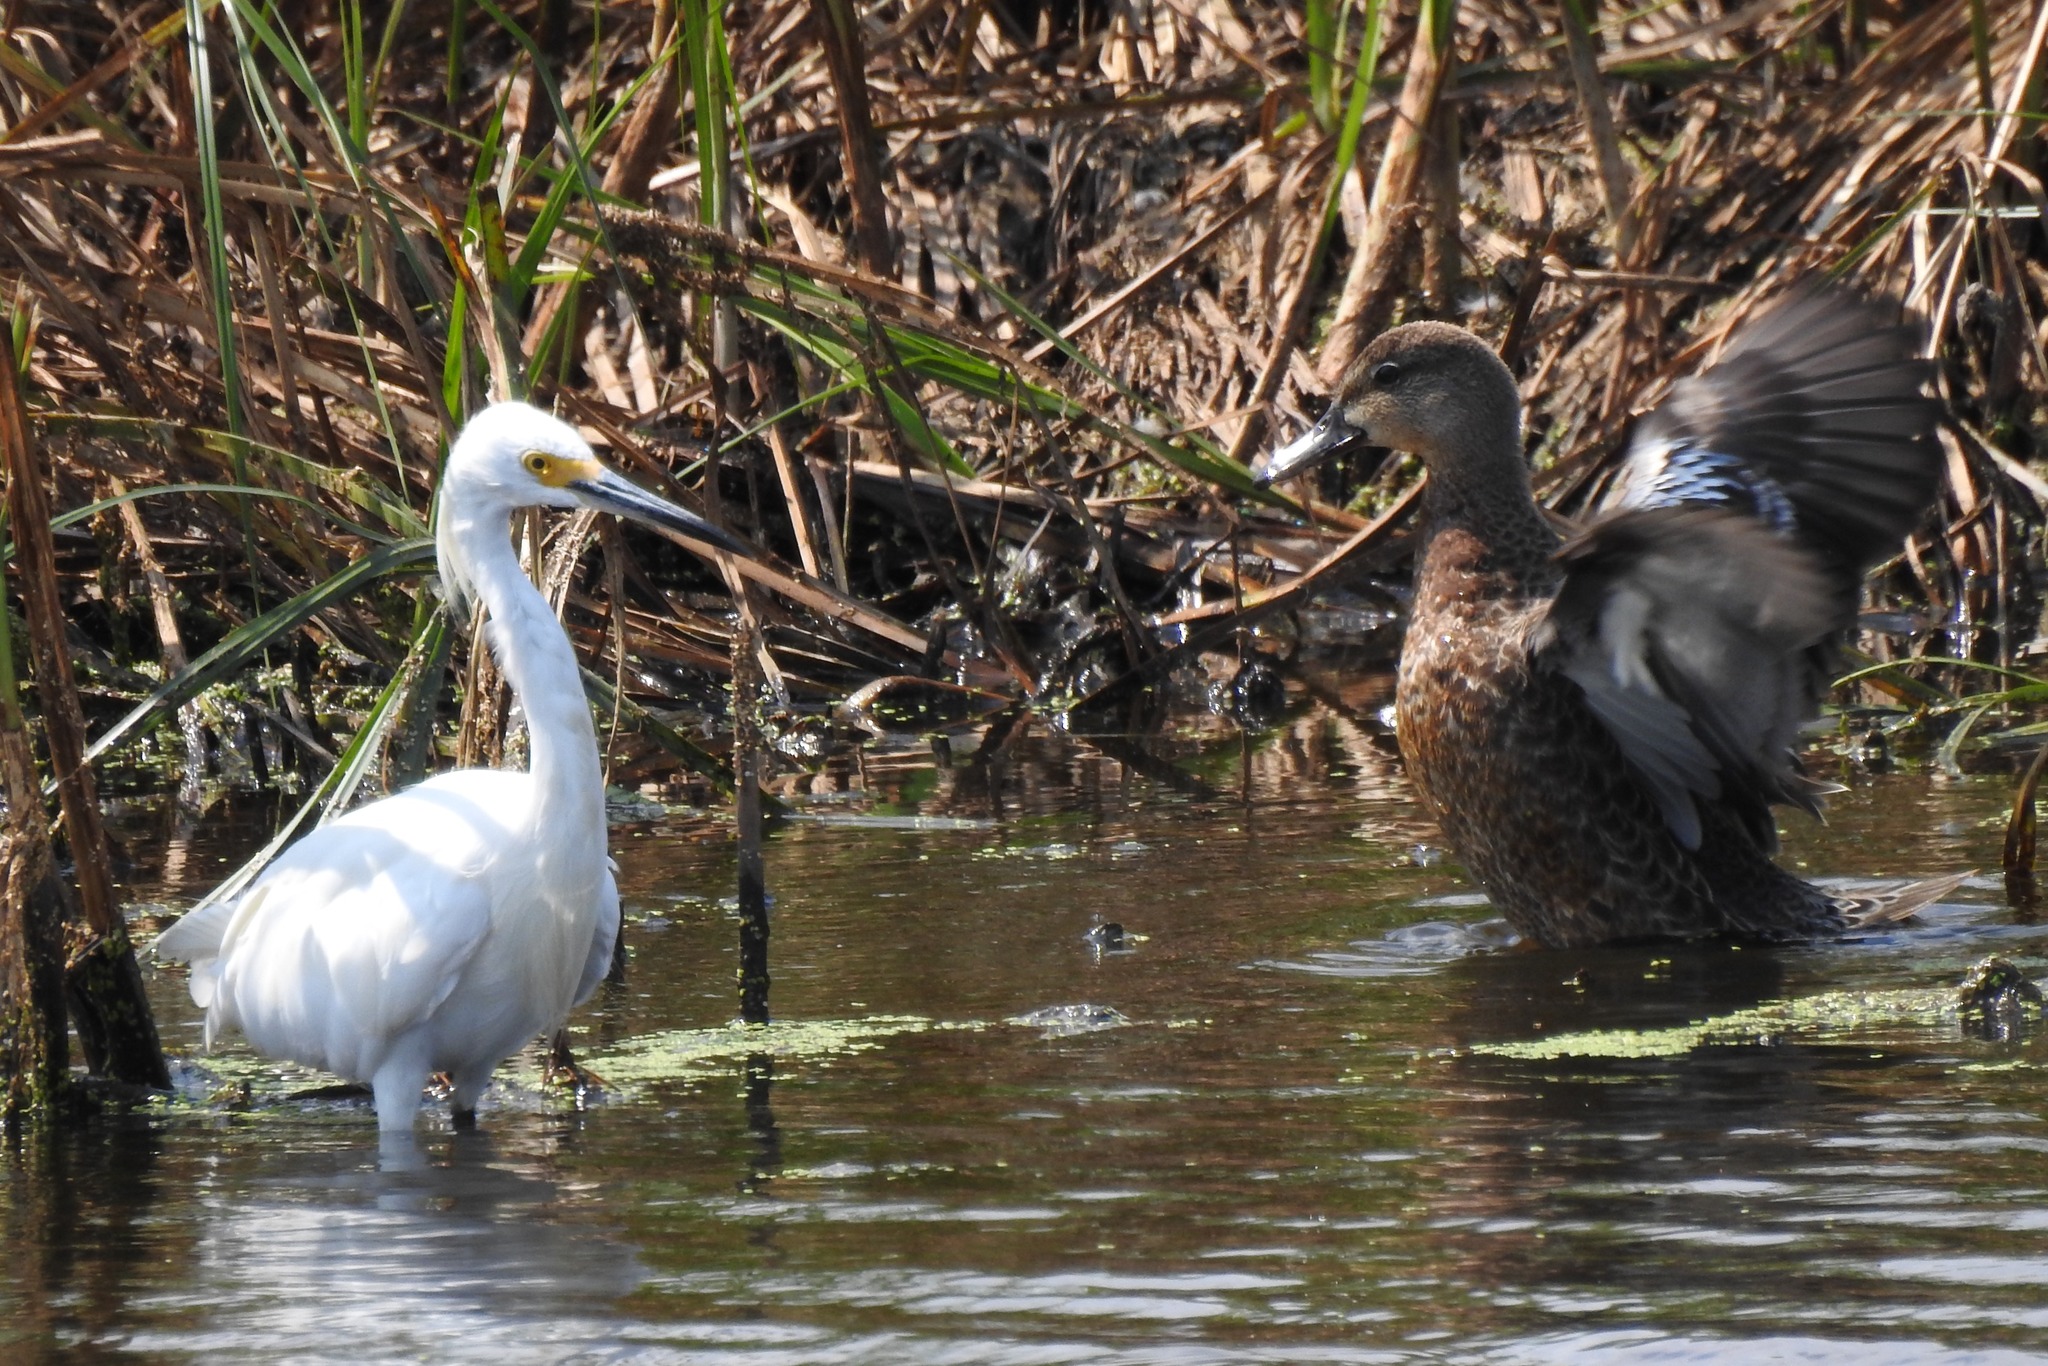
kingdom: Animalia
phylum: Chordata
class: Aves
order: Pelecaniformes
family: Ardeidae
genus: Egretta
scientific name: Egretta thula
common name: Snowy egret
